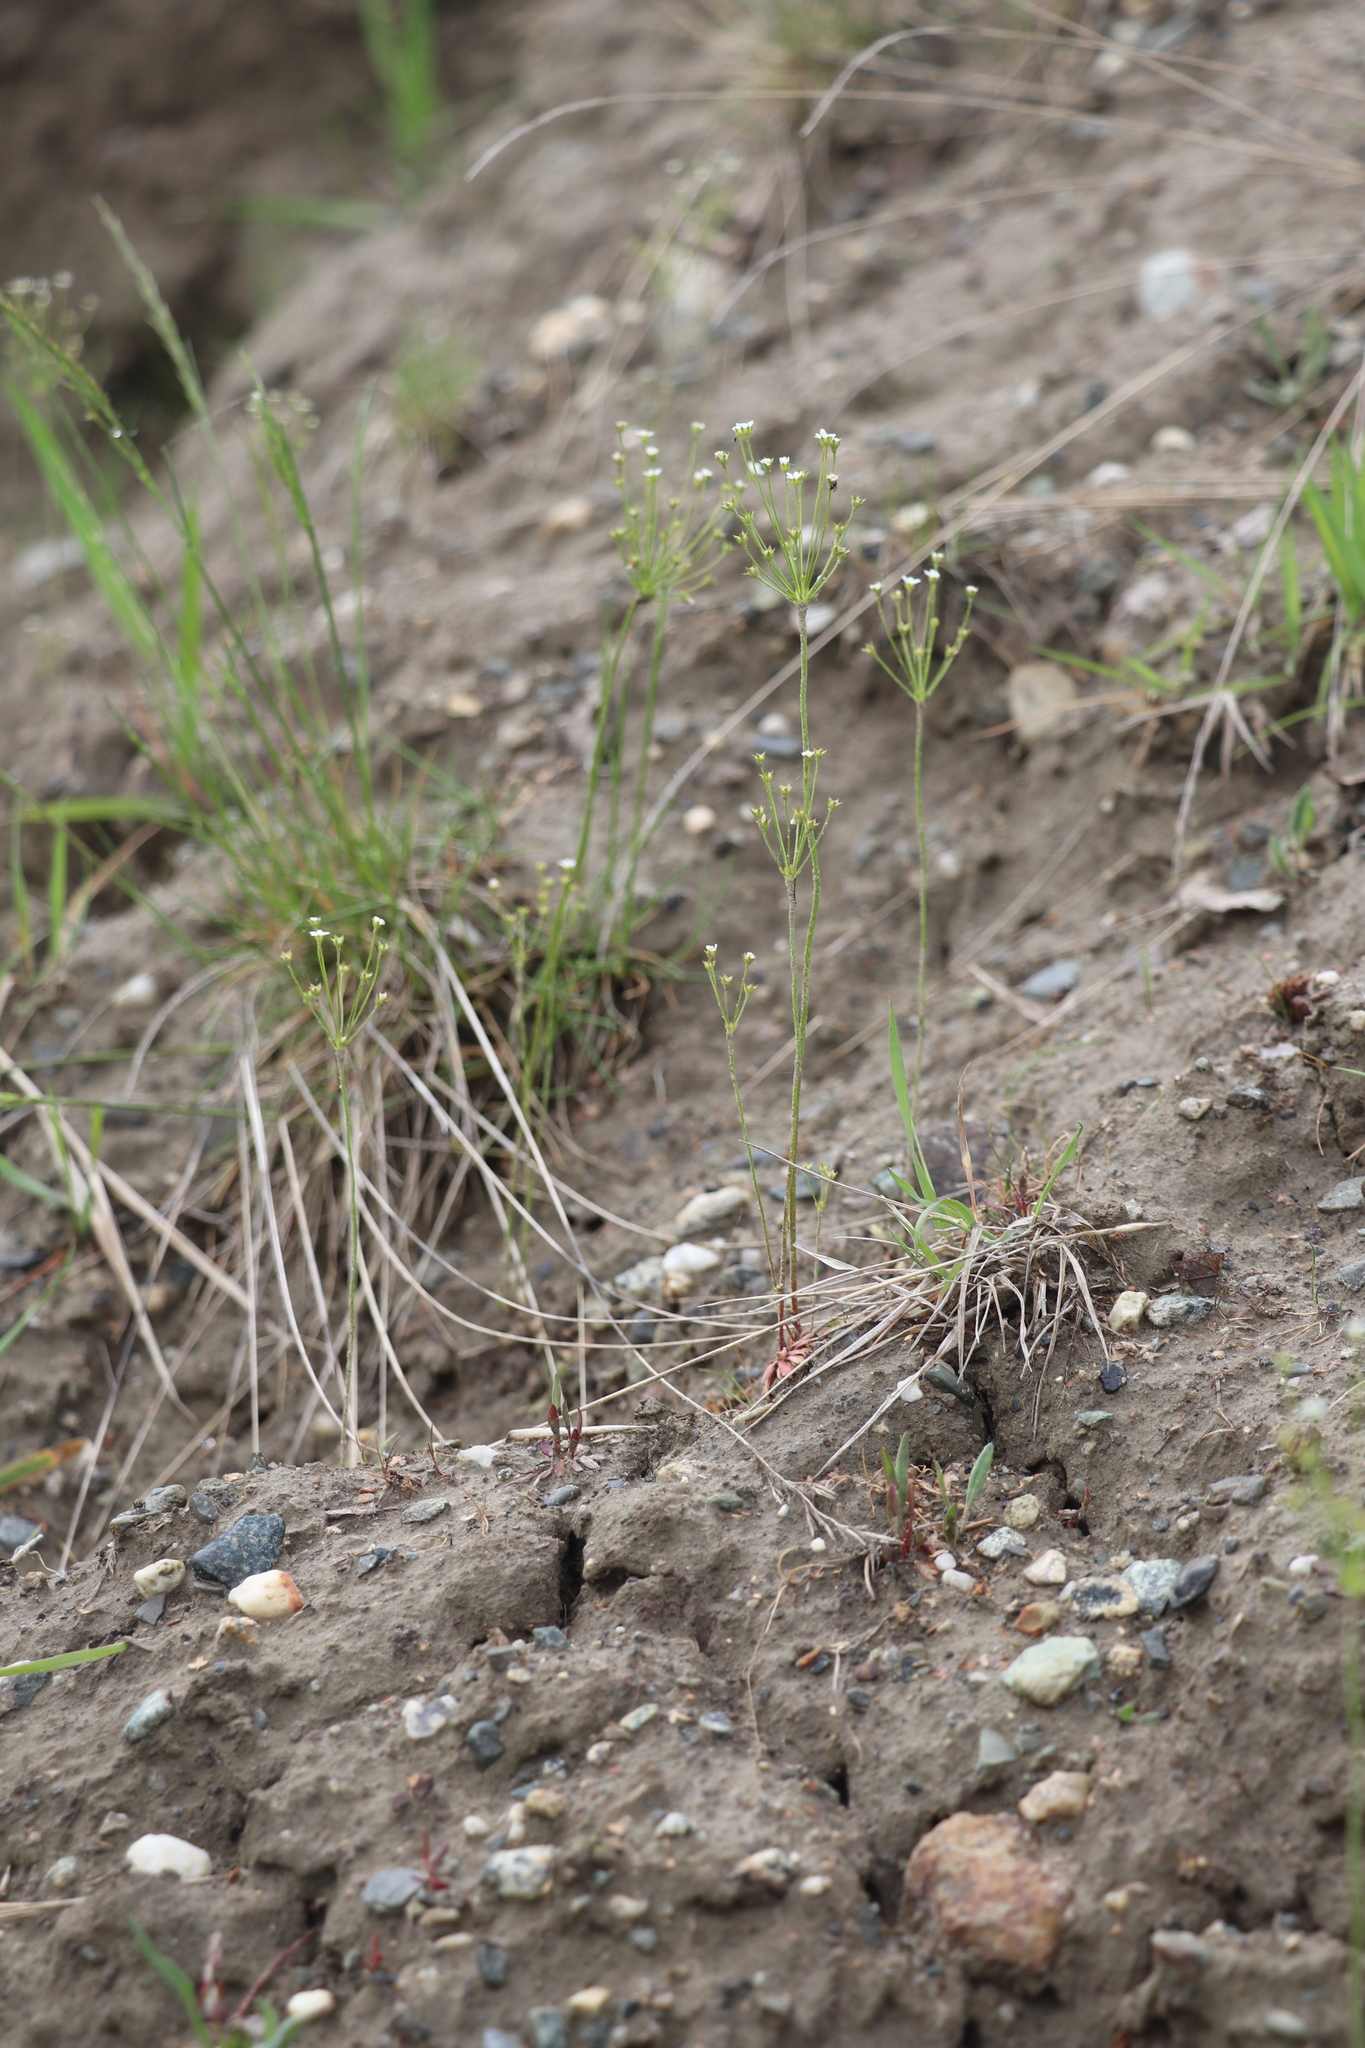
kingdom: Plantae
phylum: Tracheophyta
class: Magnoliopsida
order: Ericales
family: Primulaceae
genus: Androsace
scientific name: Androsace septentrionalis
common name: Hairy northern fairy-candelabra
